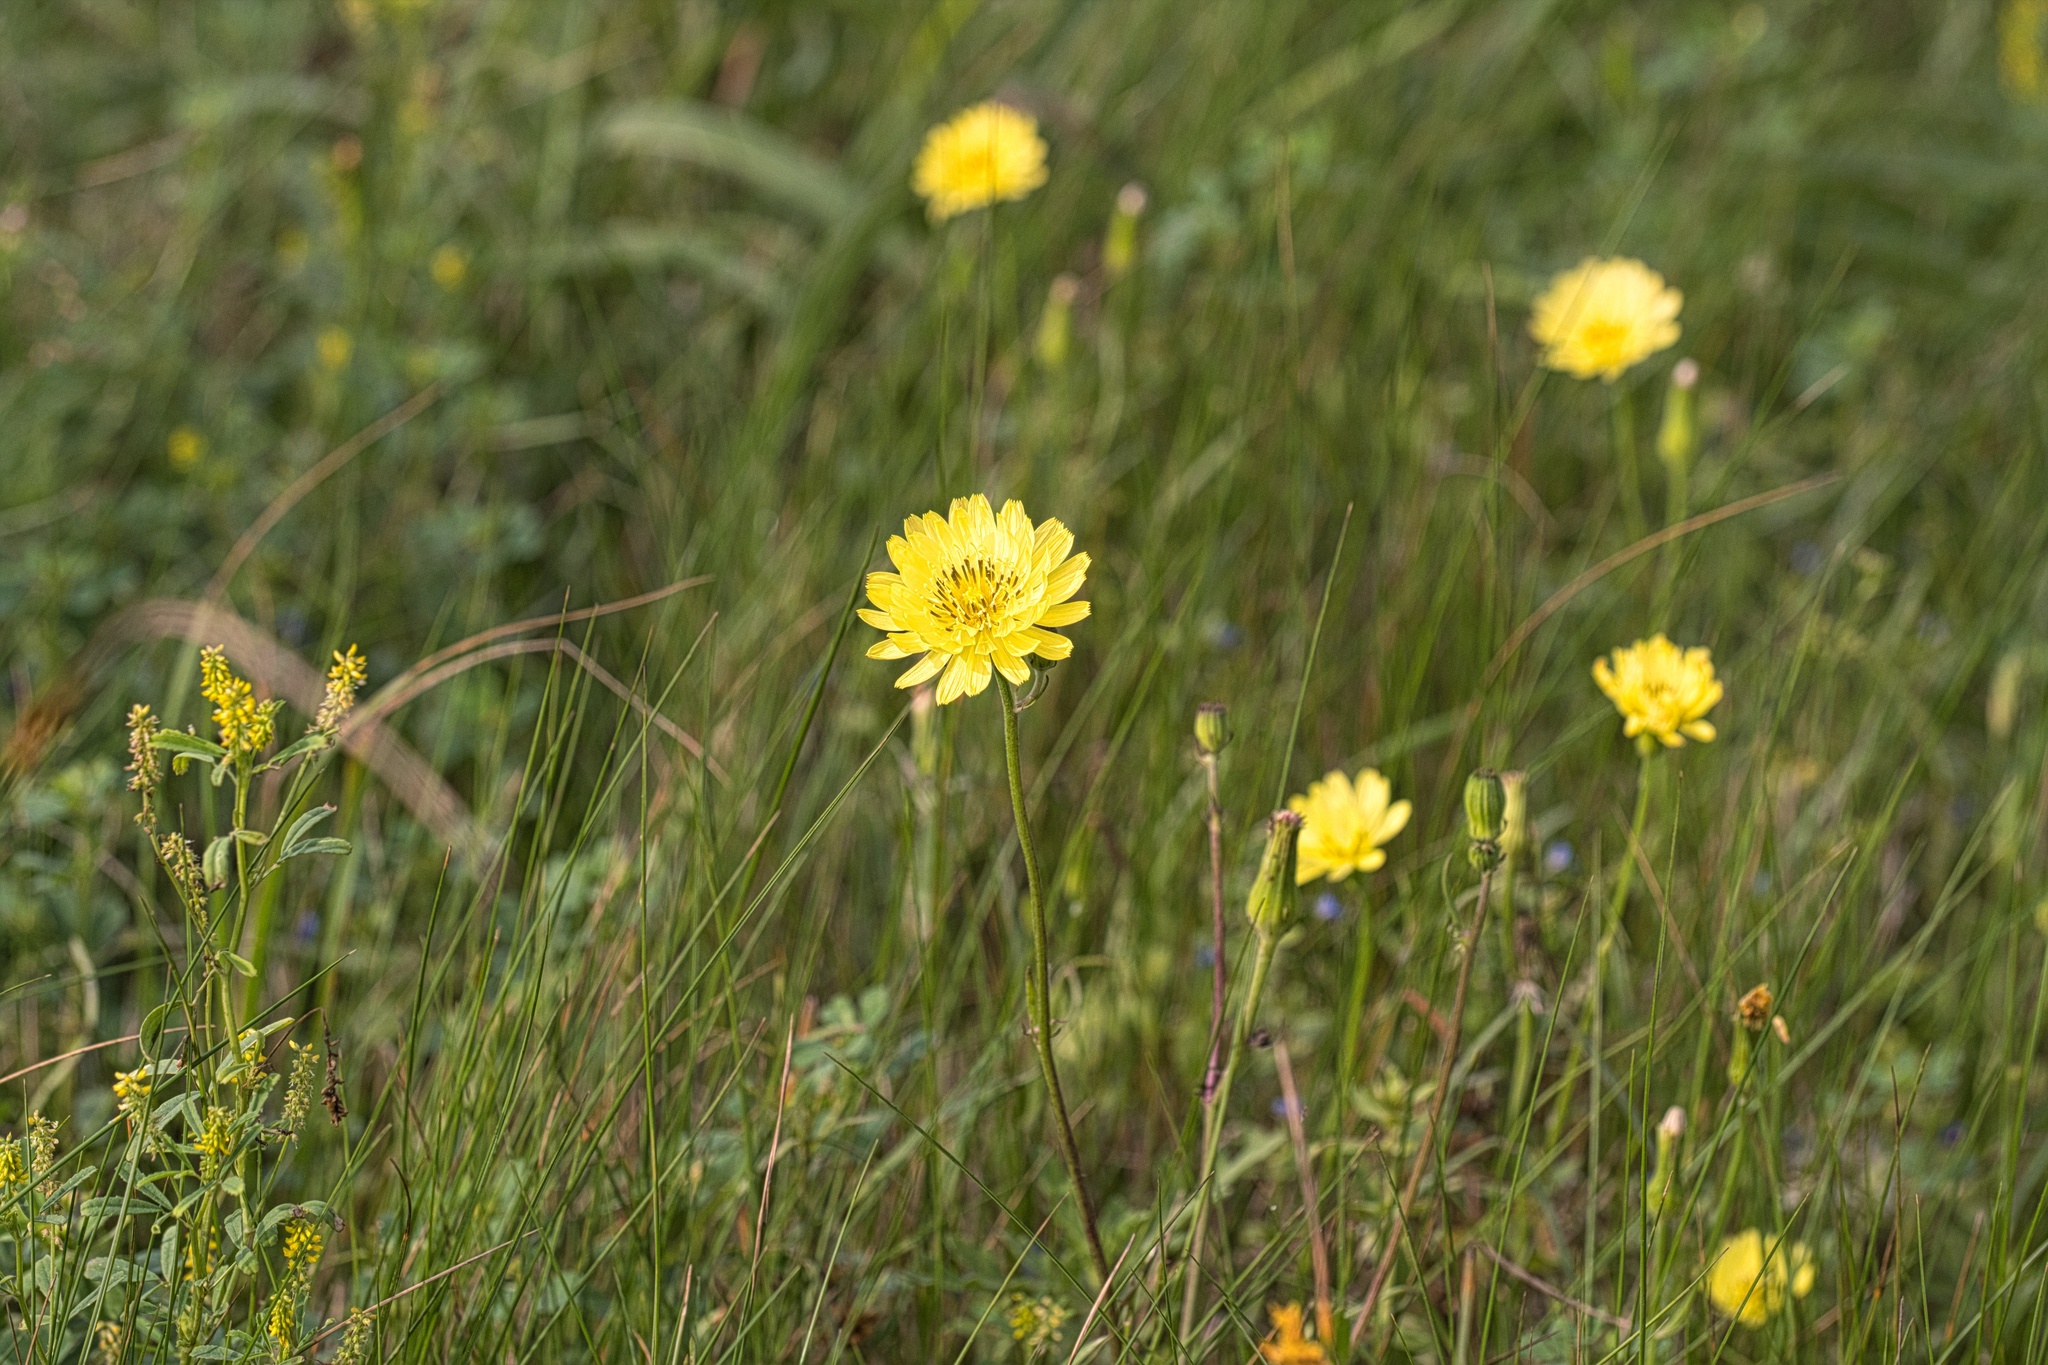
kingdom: Plantae
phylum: Tracheophyta
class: Magnoliopsida
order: Asterales
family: Asteraceae
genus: Pyrrhopappus
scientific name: Pyrrhopappus pauciflorus
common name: Texas false dandelion
